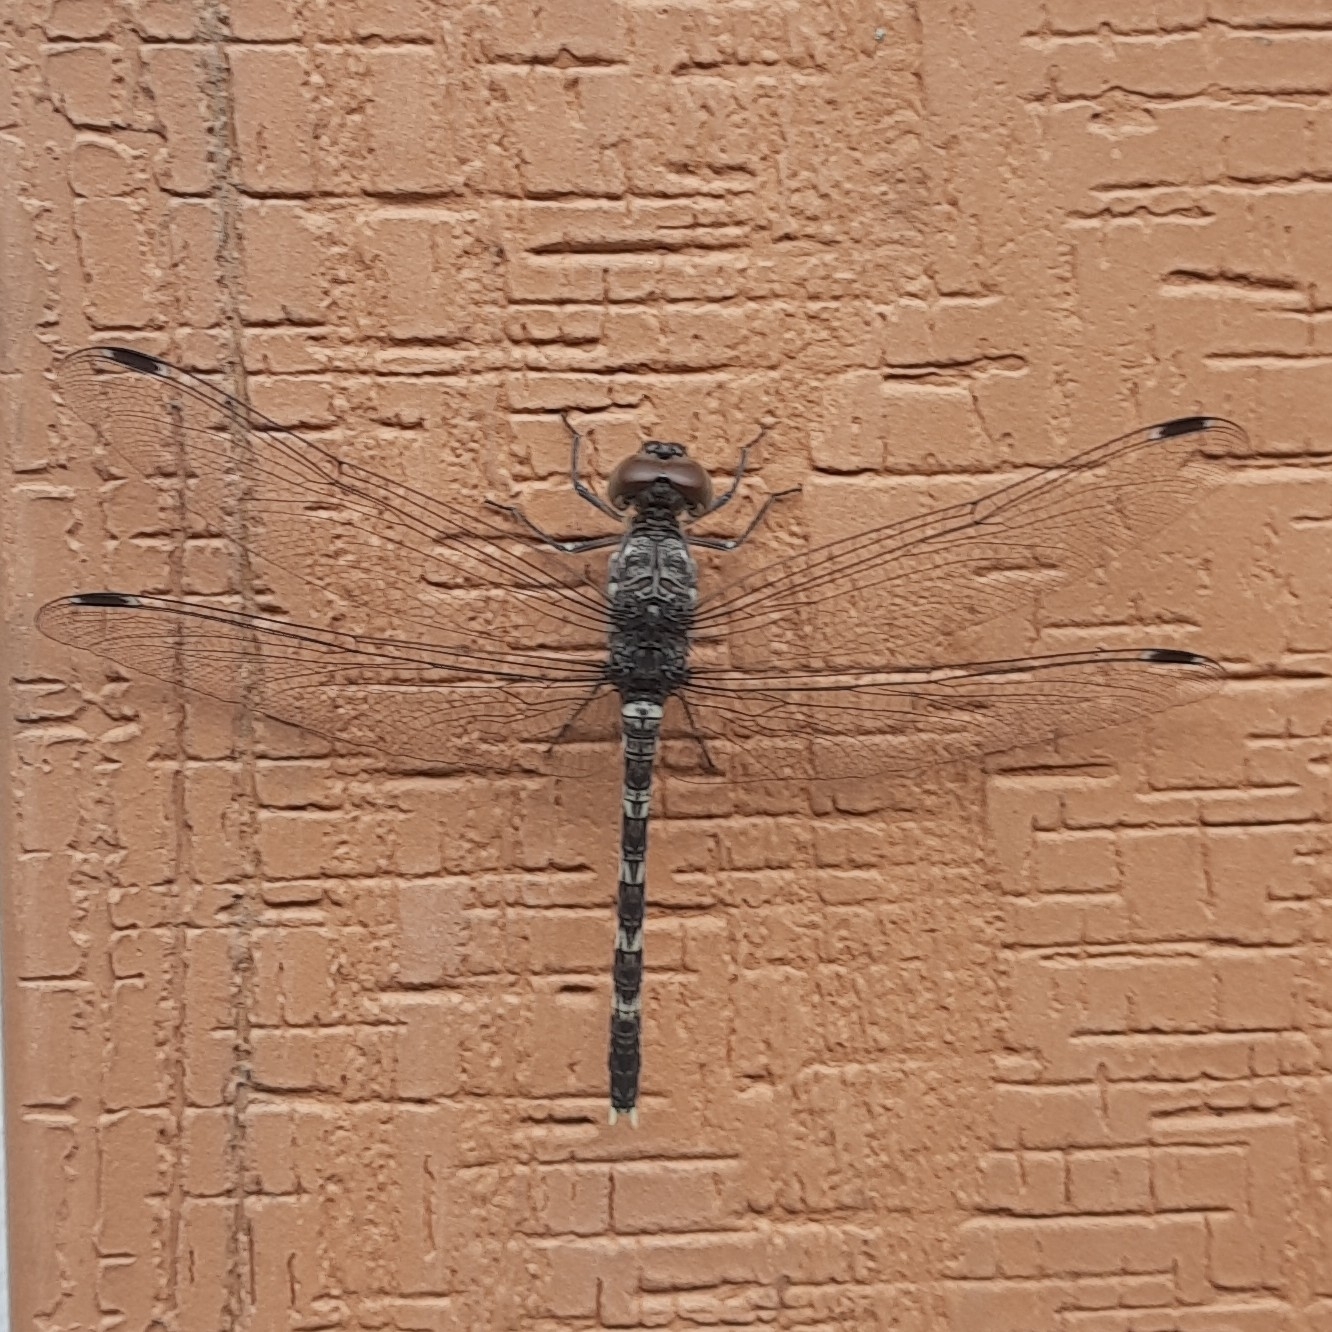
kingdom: Animalia
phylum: Arthropoda
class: Insecta
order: Odonata
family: Libellulidae
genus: Bradinopyga
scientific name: Bradinopyga geminata
